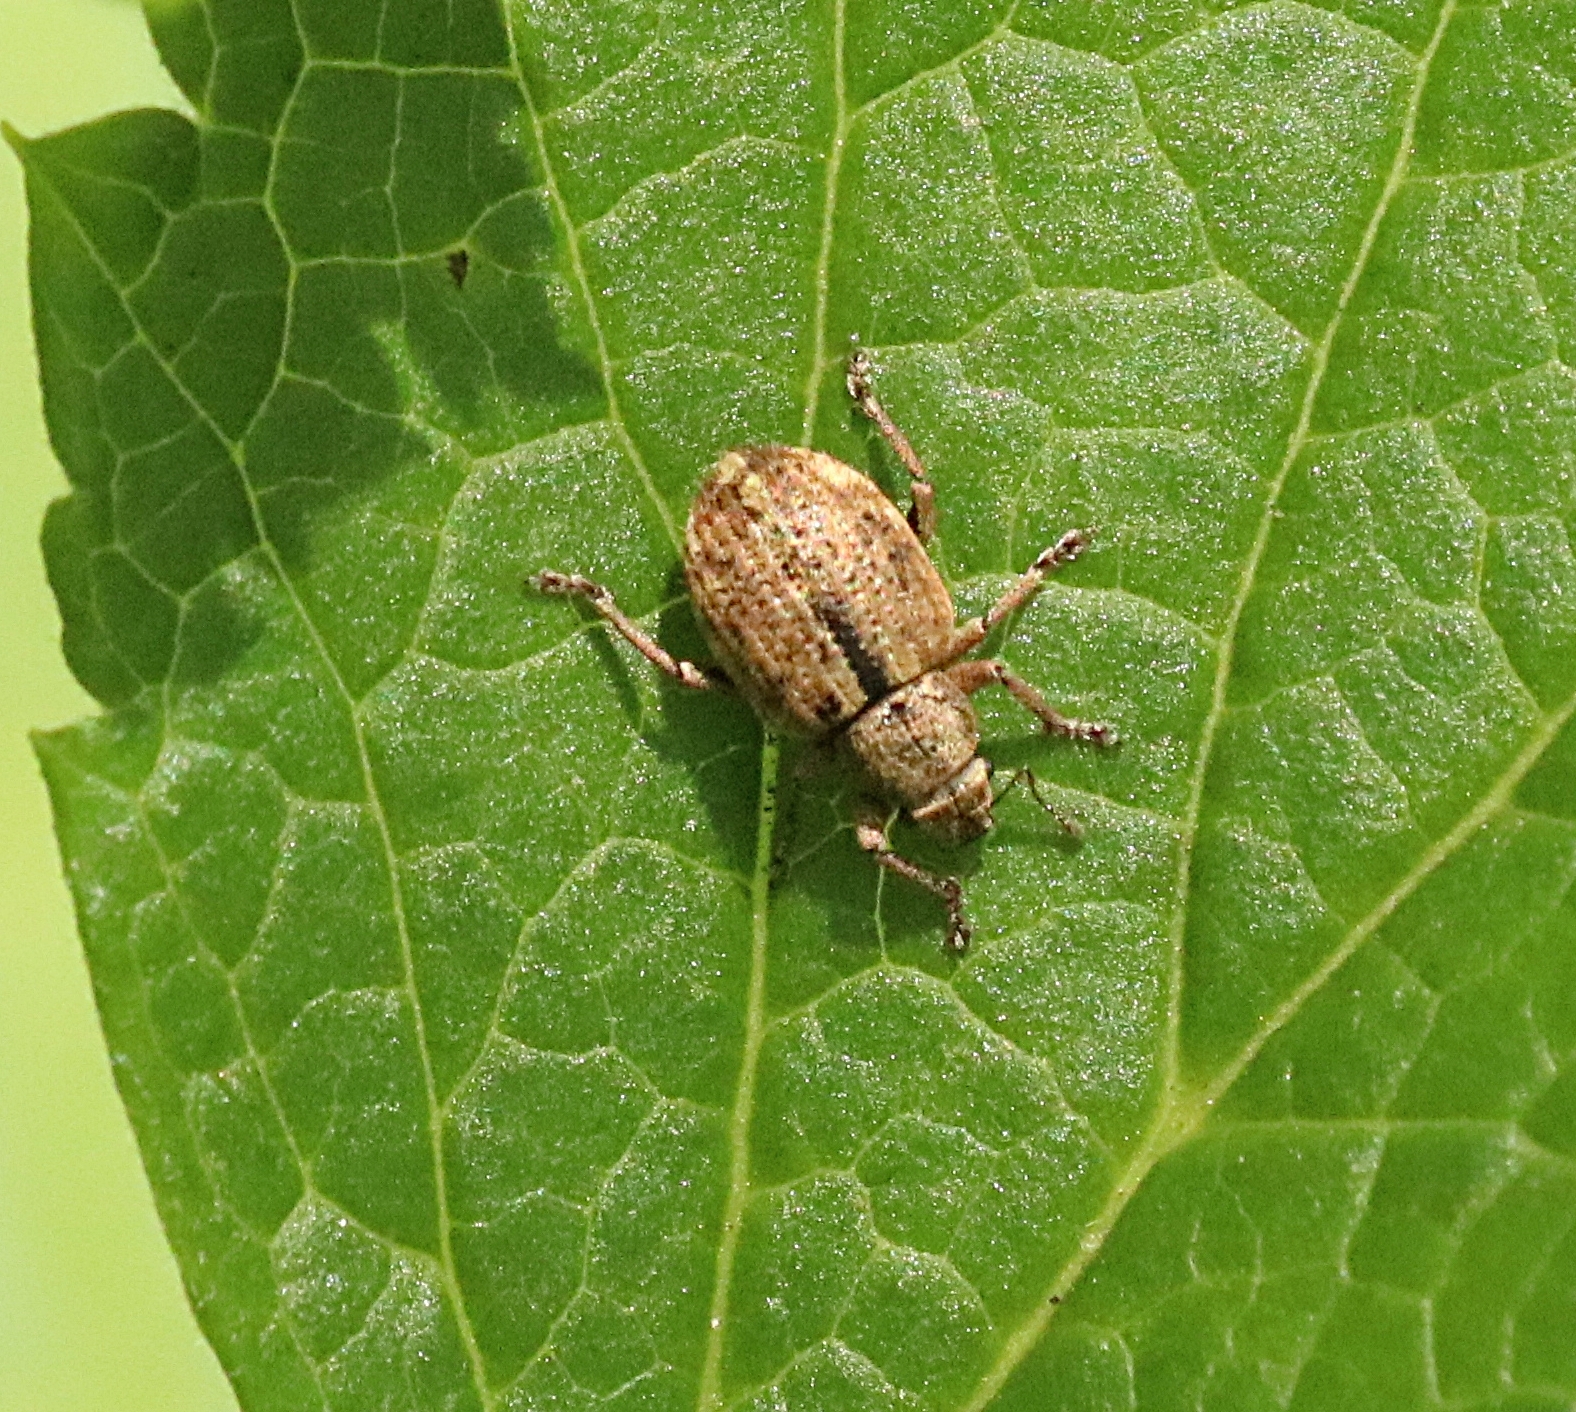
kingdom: Animalia
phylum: Arthropoda
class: Insecta
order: Coleoptera
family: Curculionidae
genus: Strophosoma
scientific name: Strophosoma melanogrammum
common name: Weevil
